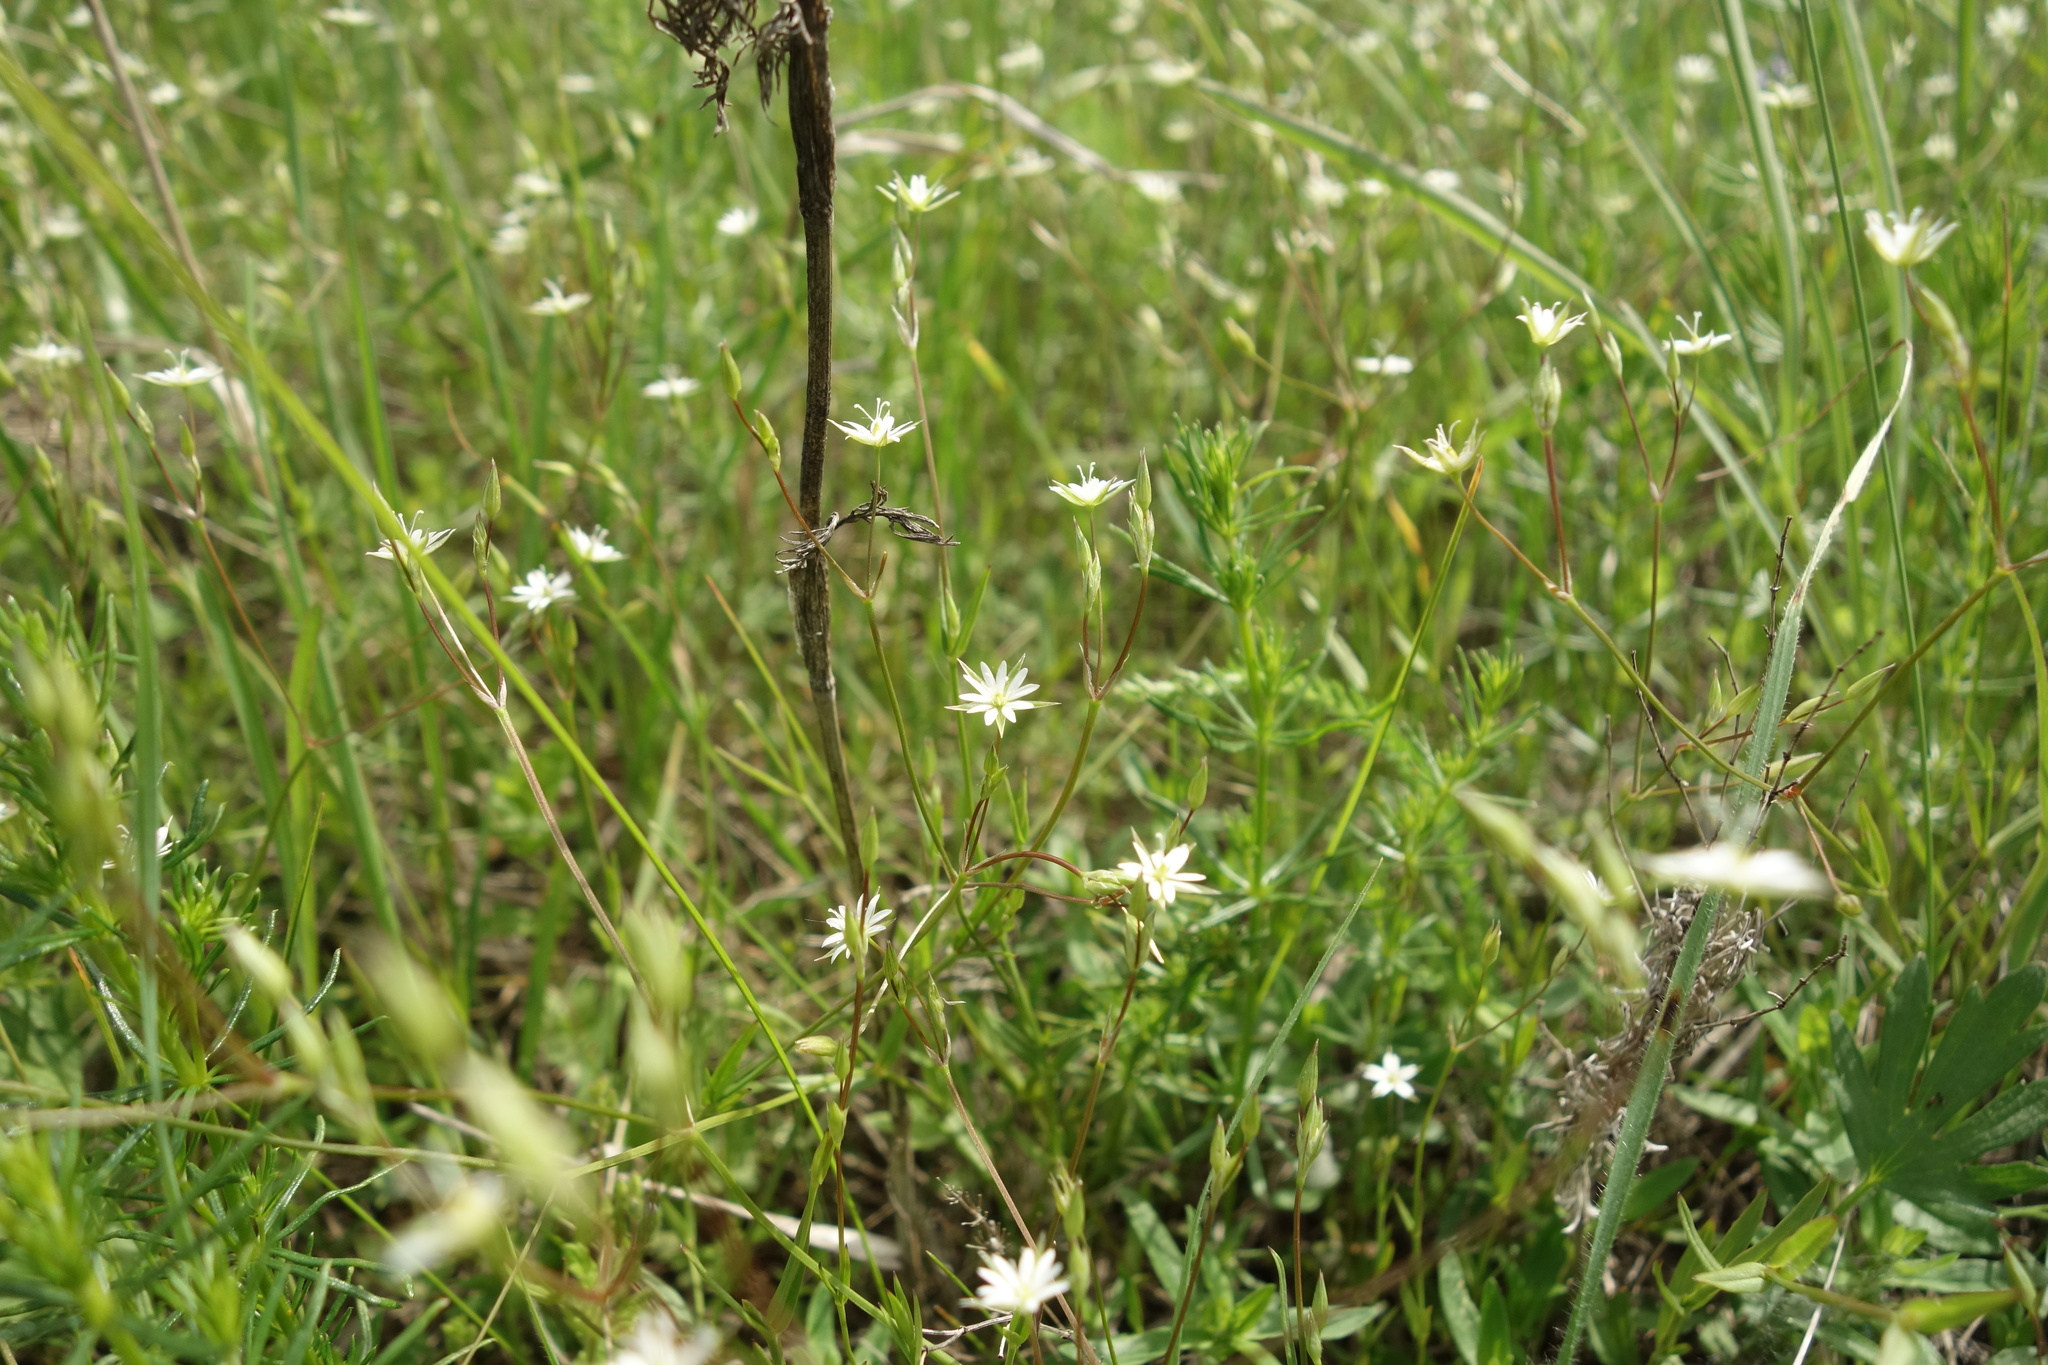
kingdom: Plantae
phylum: Tracheophyta
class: Magnoliopsida
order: Caryophyllales
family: Caryophyllaceae
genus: Stellaria
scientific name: Stellaria graminea
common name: Grass-like starwort
